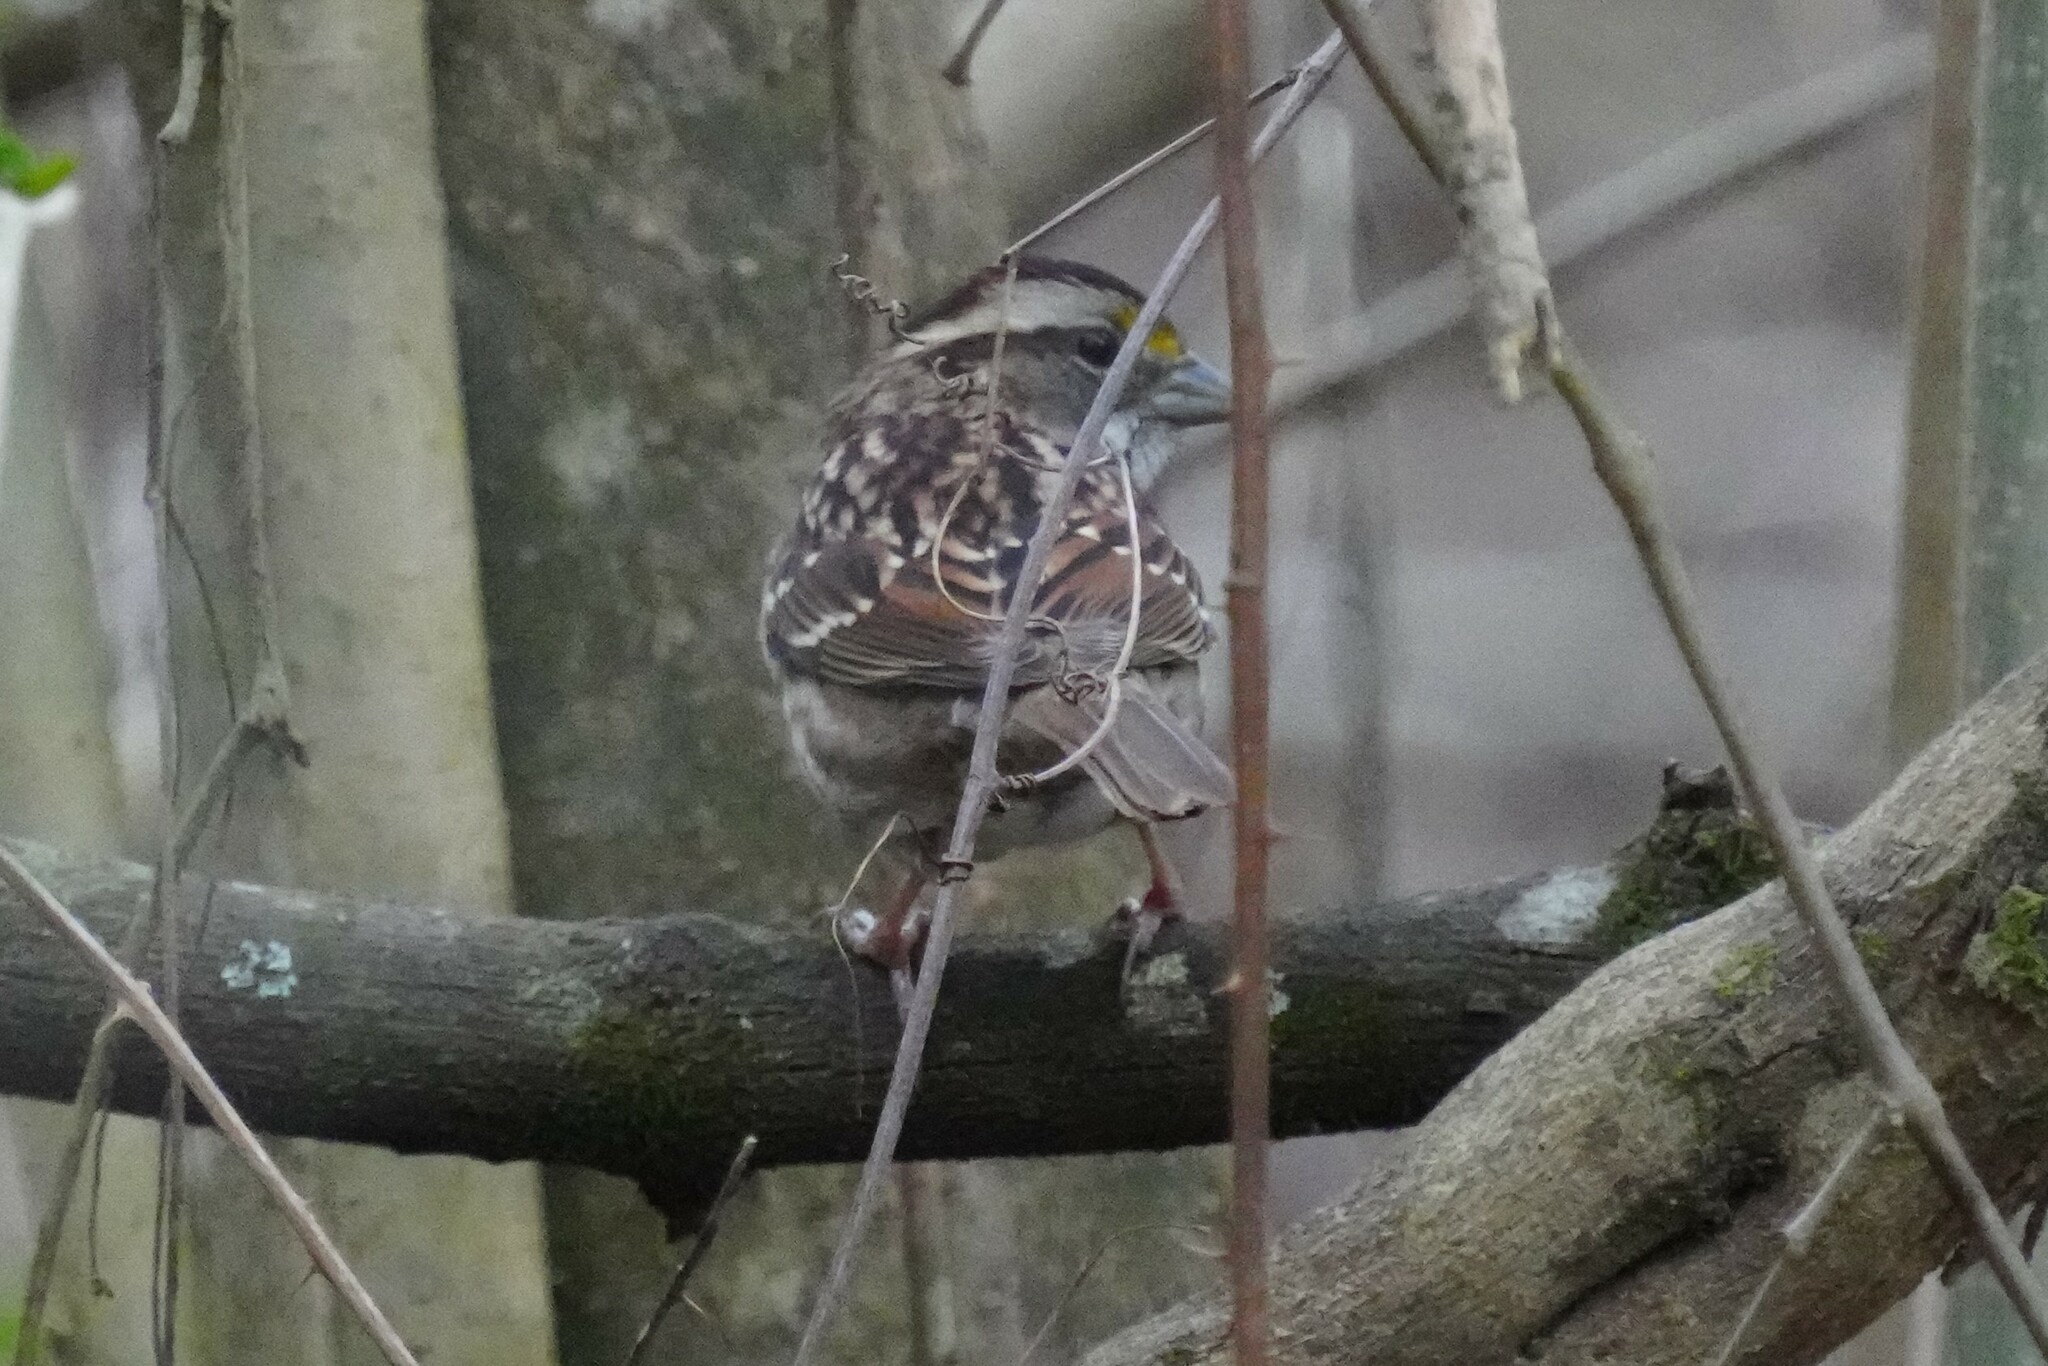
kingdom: Animalia
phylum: Chordata
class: Aves
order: Passeriformes
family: Passerellidae
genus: Zonotrichia
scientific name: Zonotrichia albicollis
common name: White-throated sparrow
